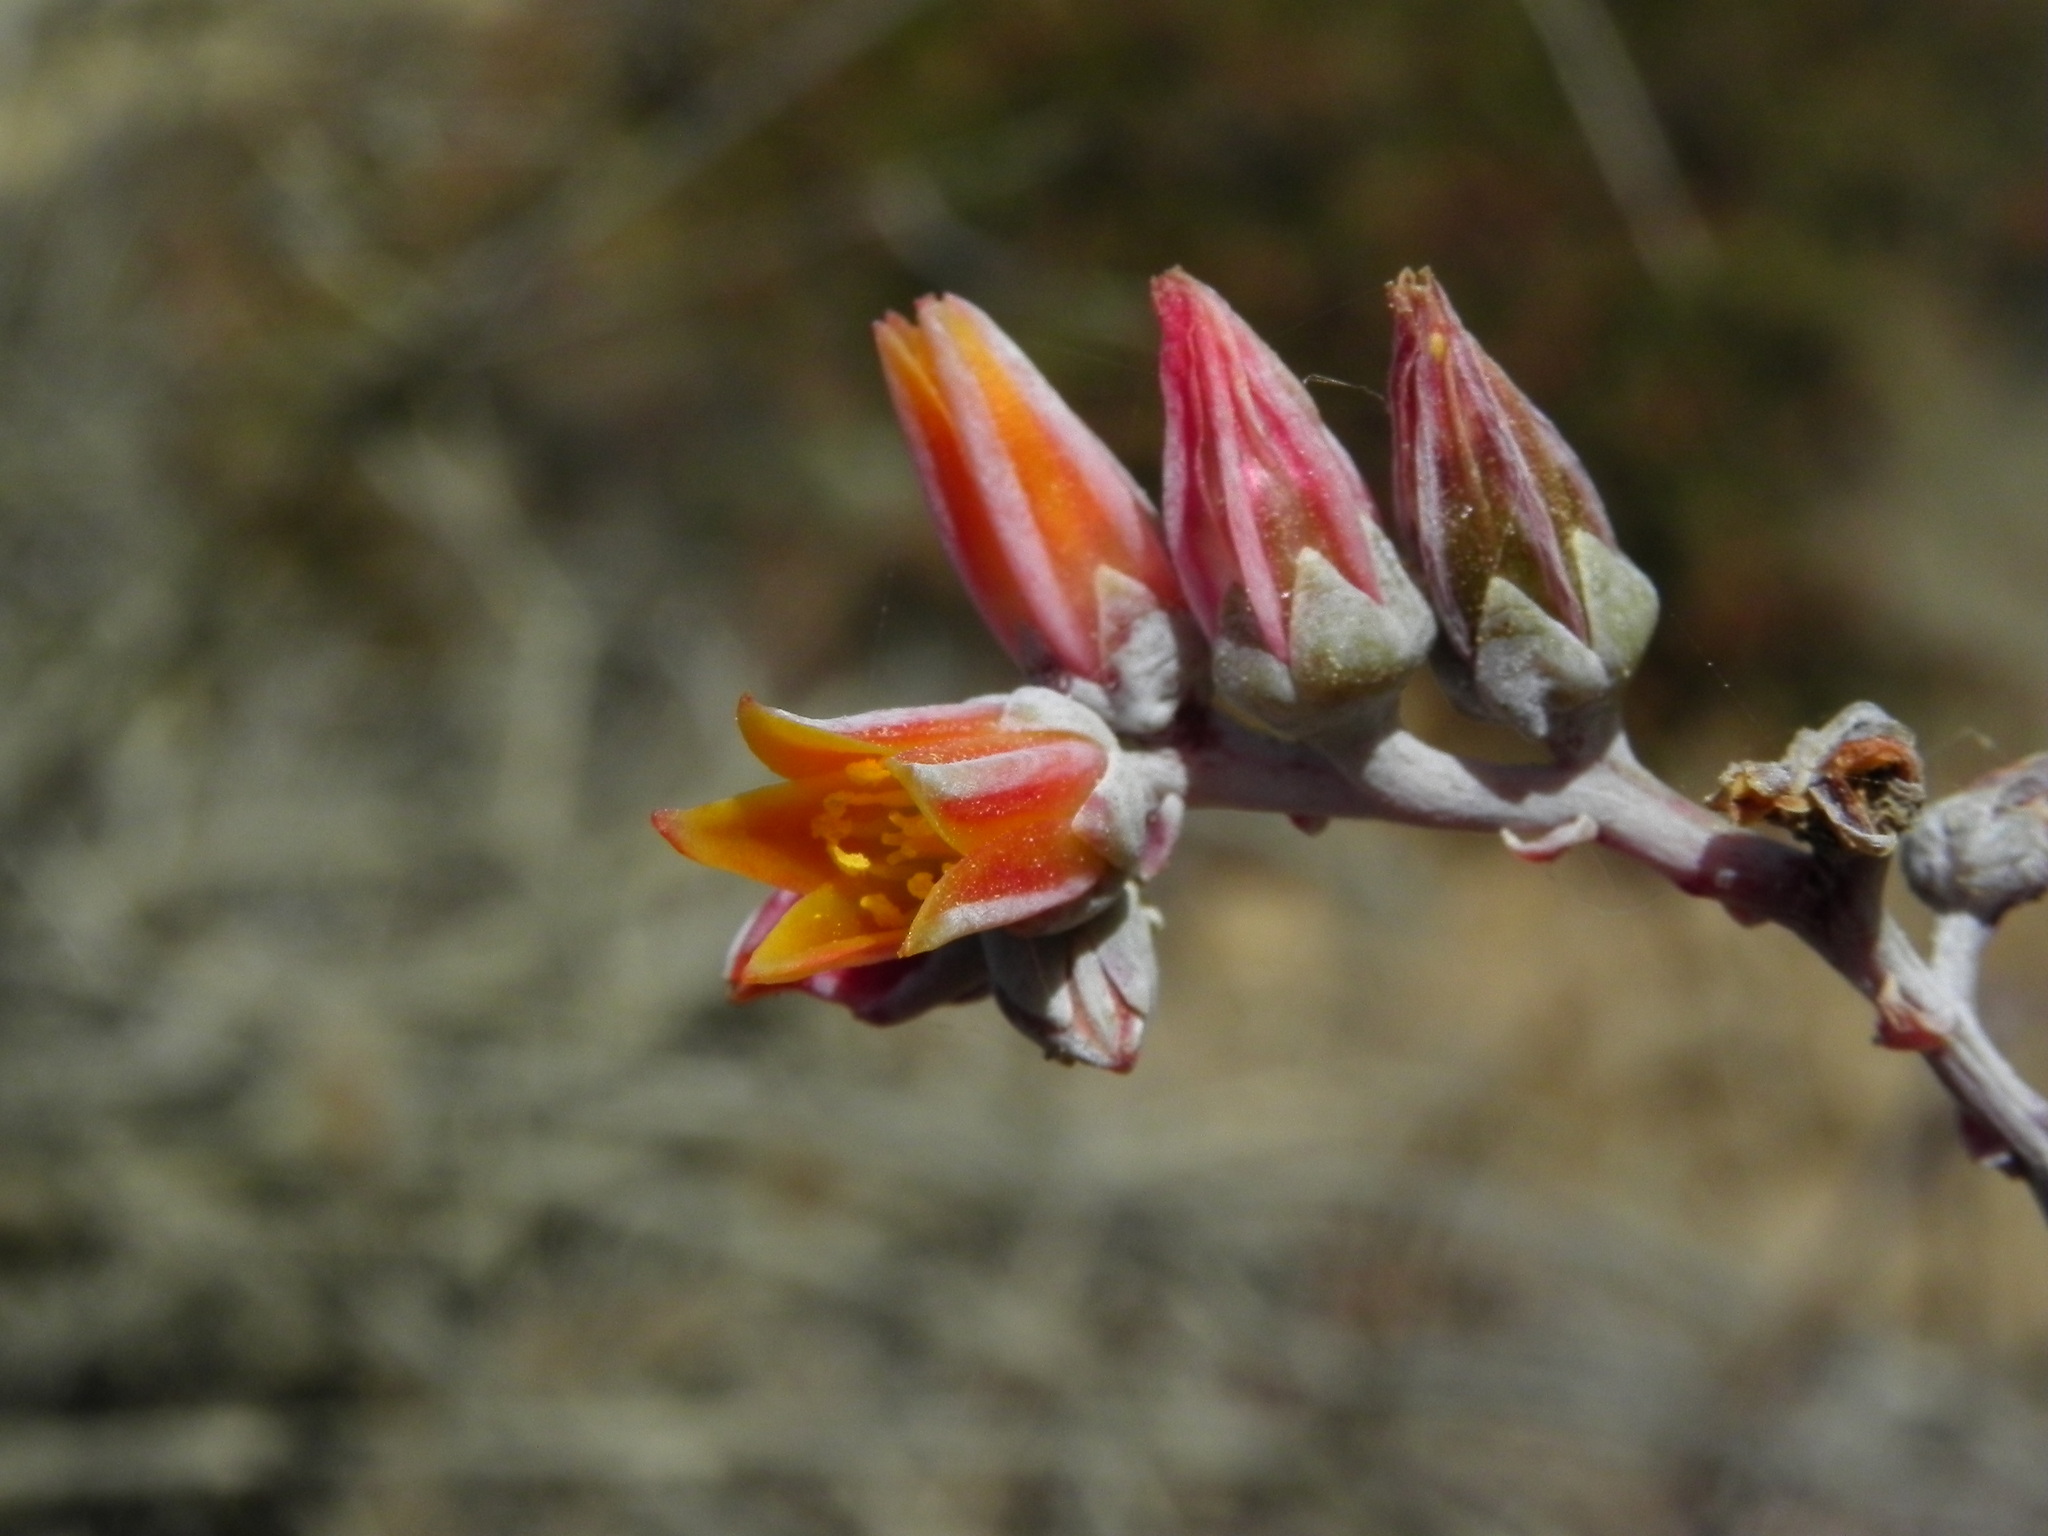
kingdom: Plantae
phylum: Tracheophyta
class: Magnoliopsida
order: Saxifragales
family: Crassulaceae
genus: Dudleya
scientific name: Dudleya lanceolata
